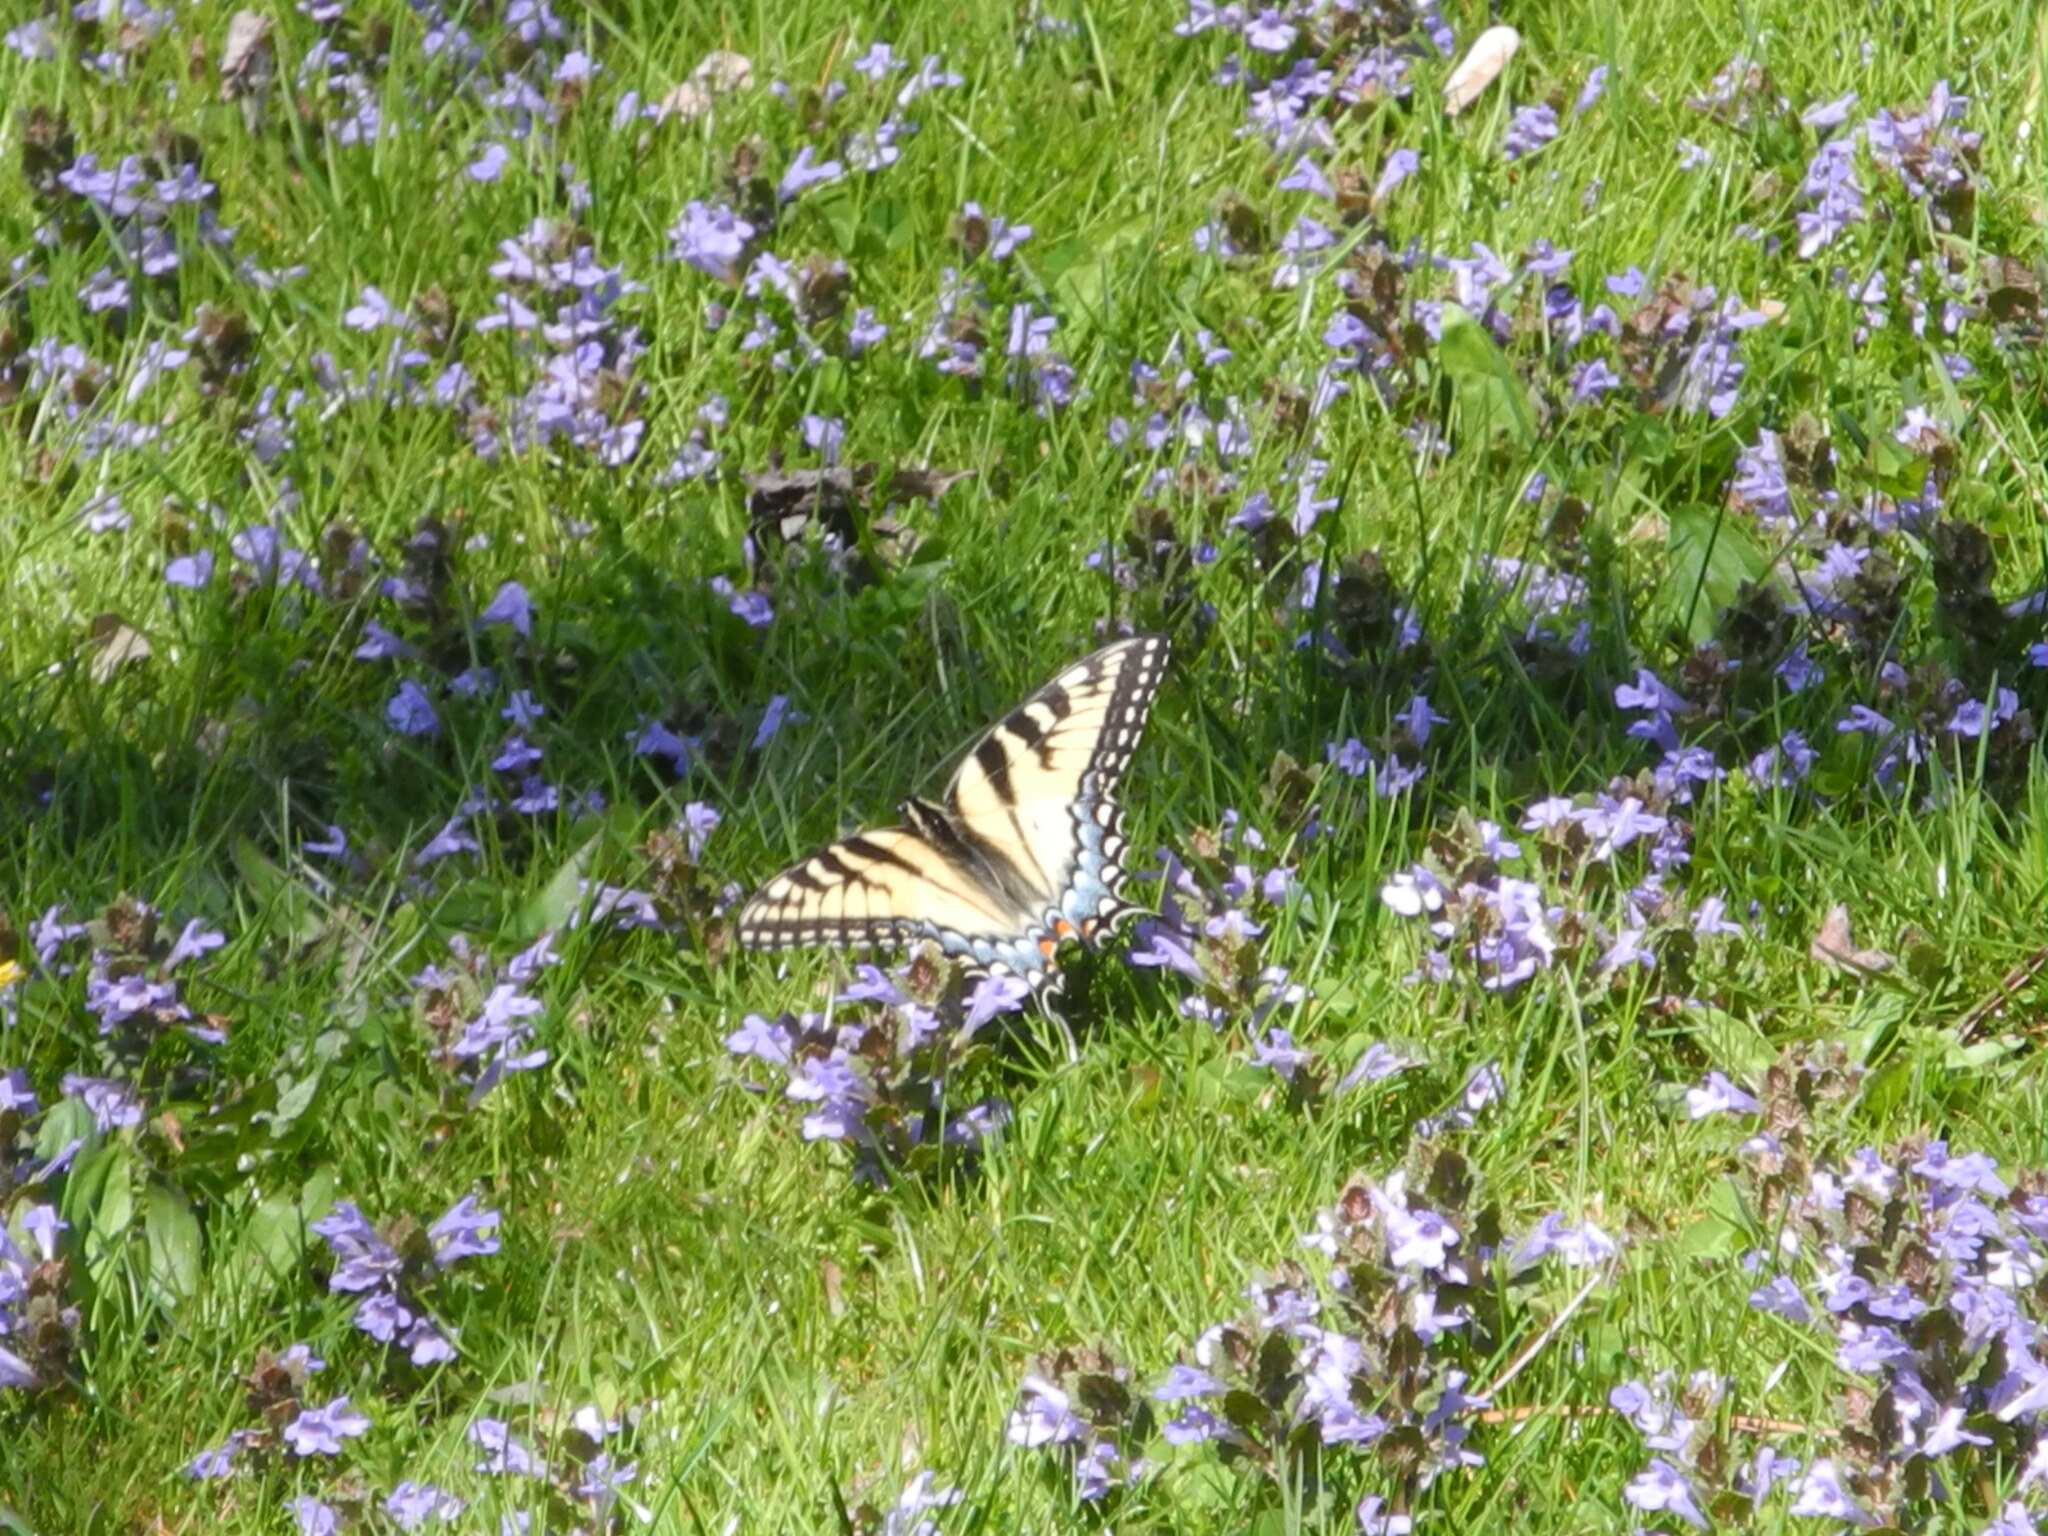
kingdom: Animalia
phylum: Arthropoda
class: Insecta
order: Lepidoptera
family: Papilionidae
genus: Papilio
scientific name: Papilio glaucus
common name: Tiger swallowtail
